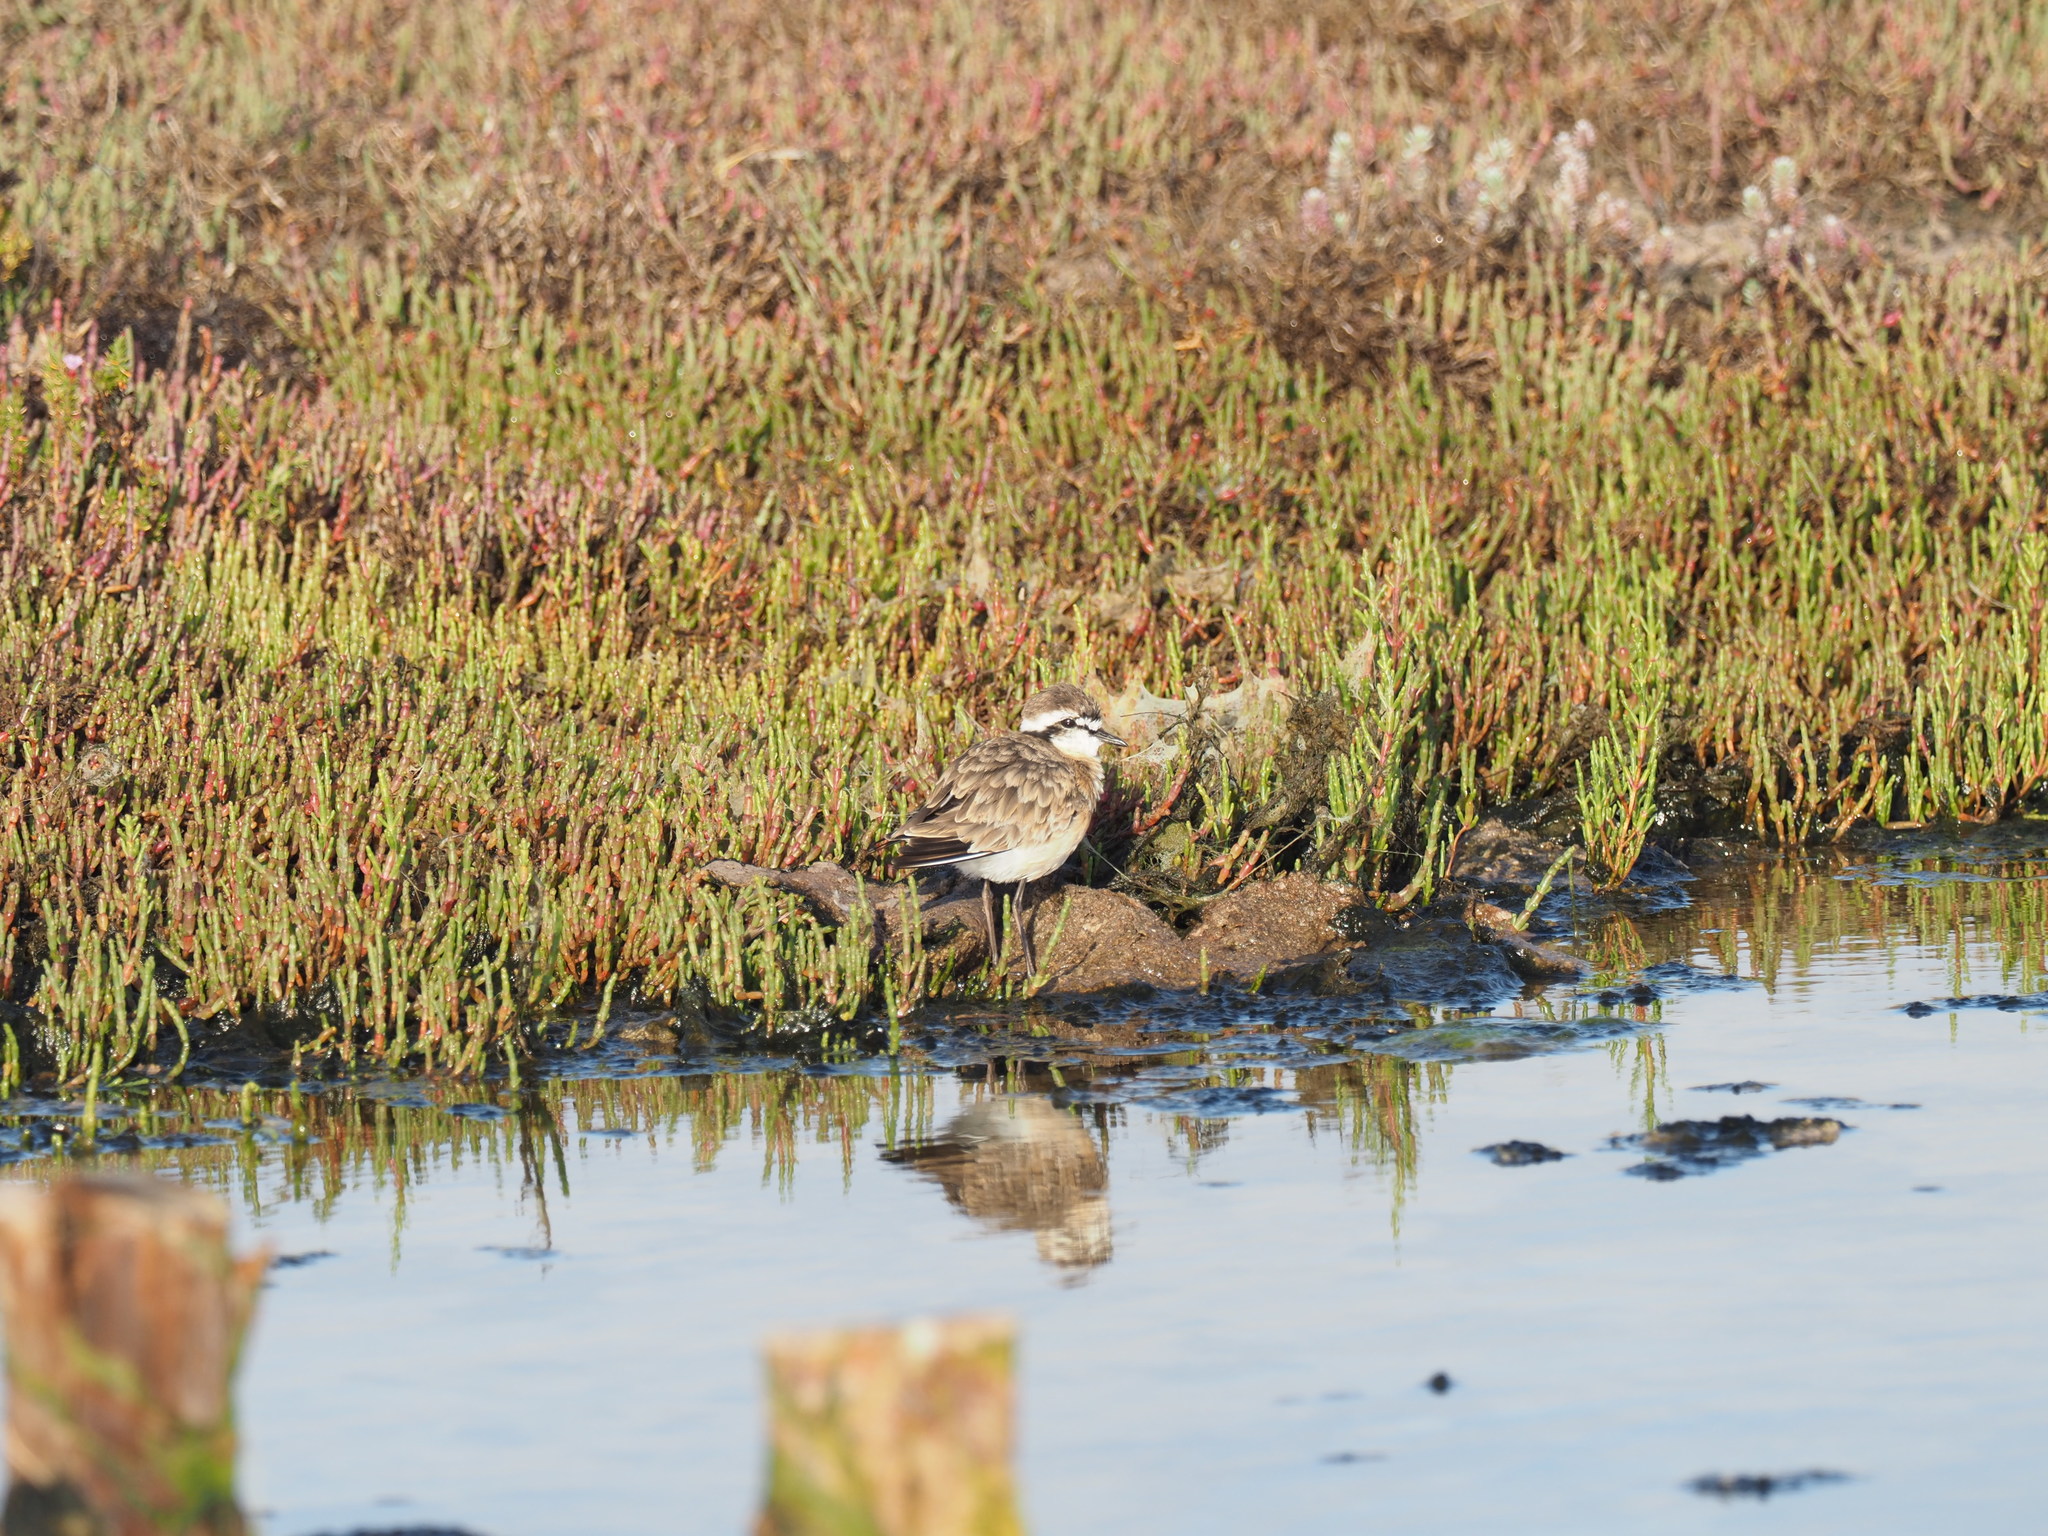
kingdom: Animalia
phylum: Chordata
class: Aves
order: Charadriiformes
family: Charadriidae
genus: Anarhynchus
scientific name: Anarhynchus
